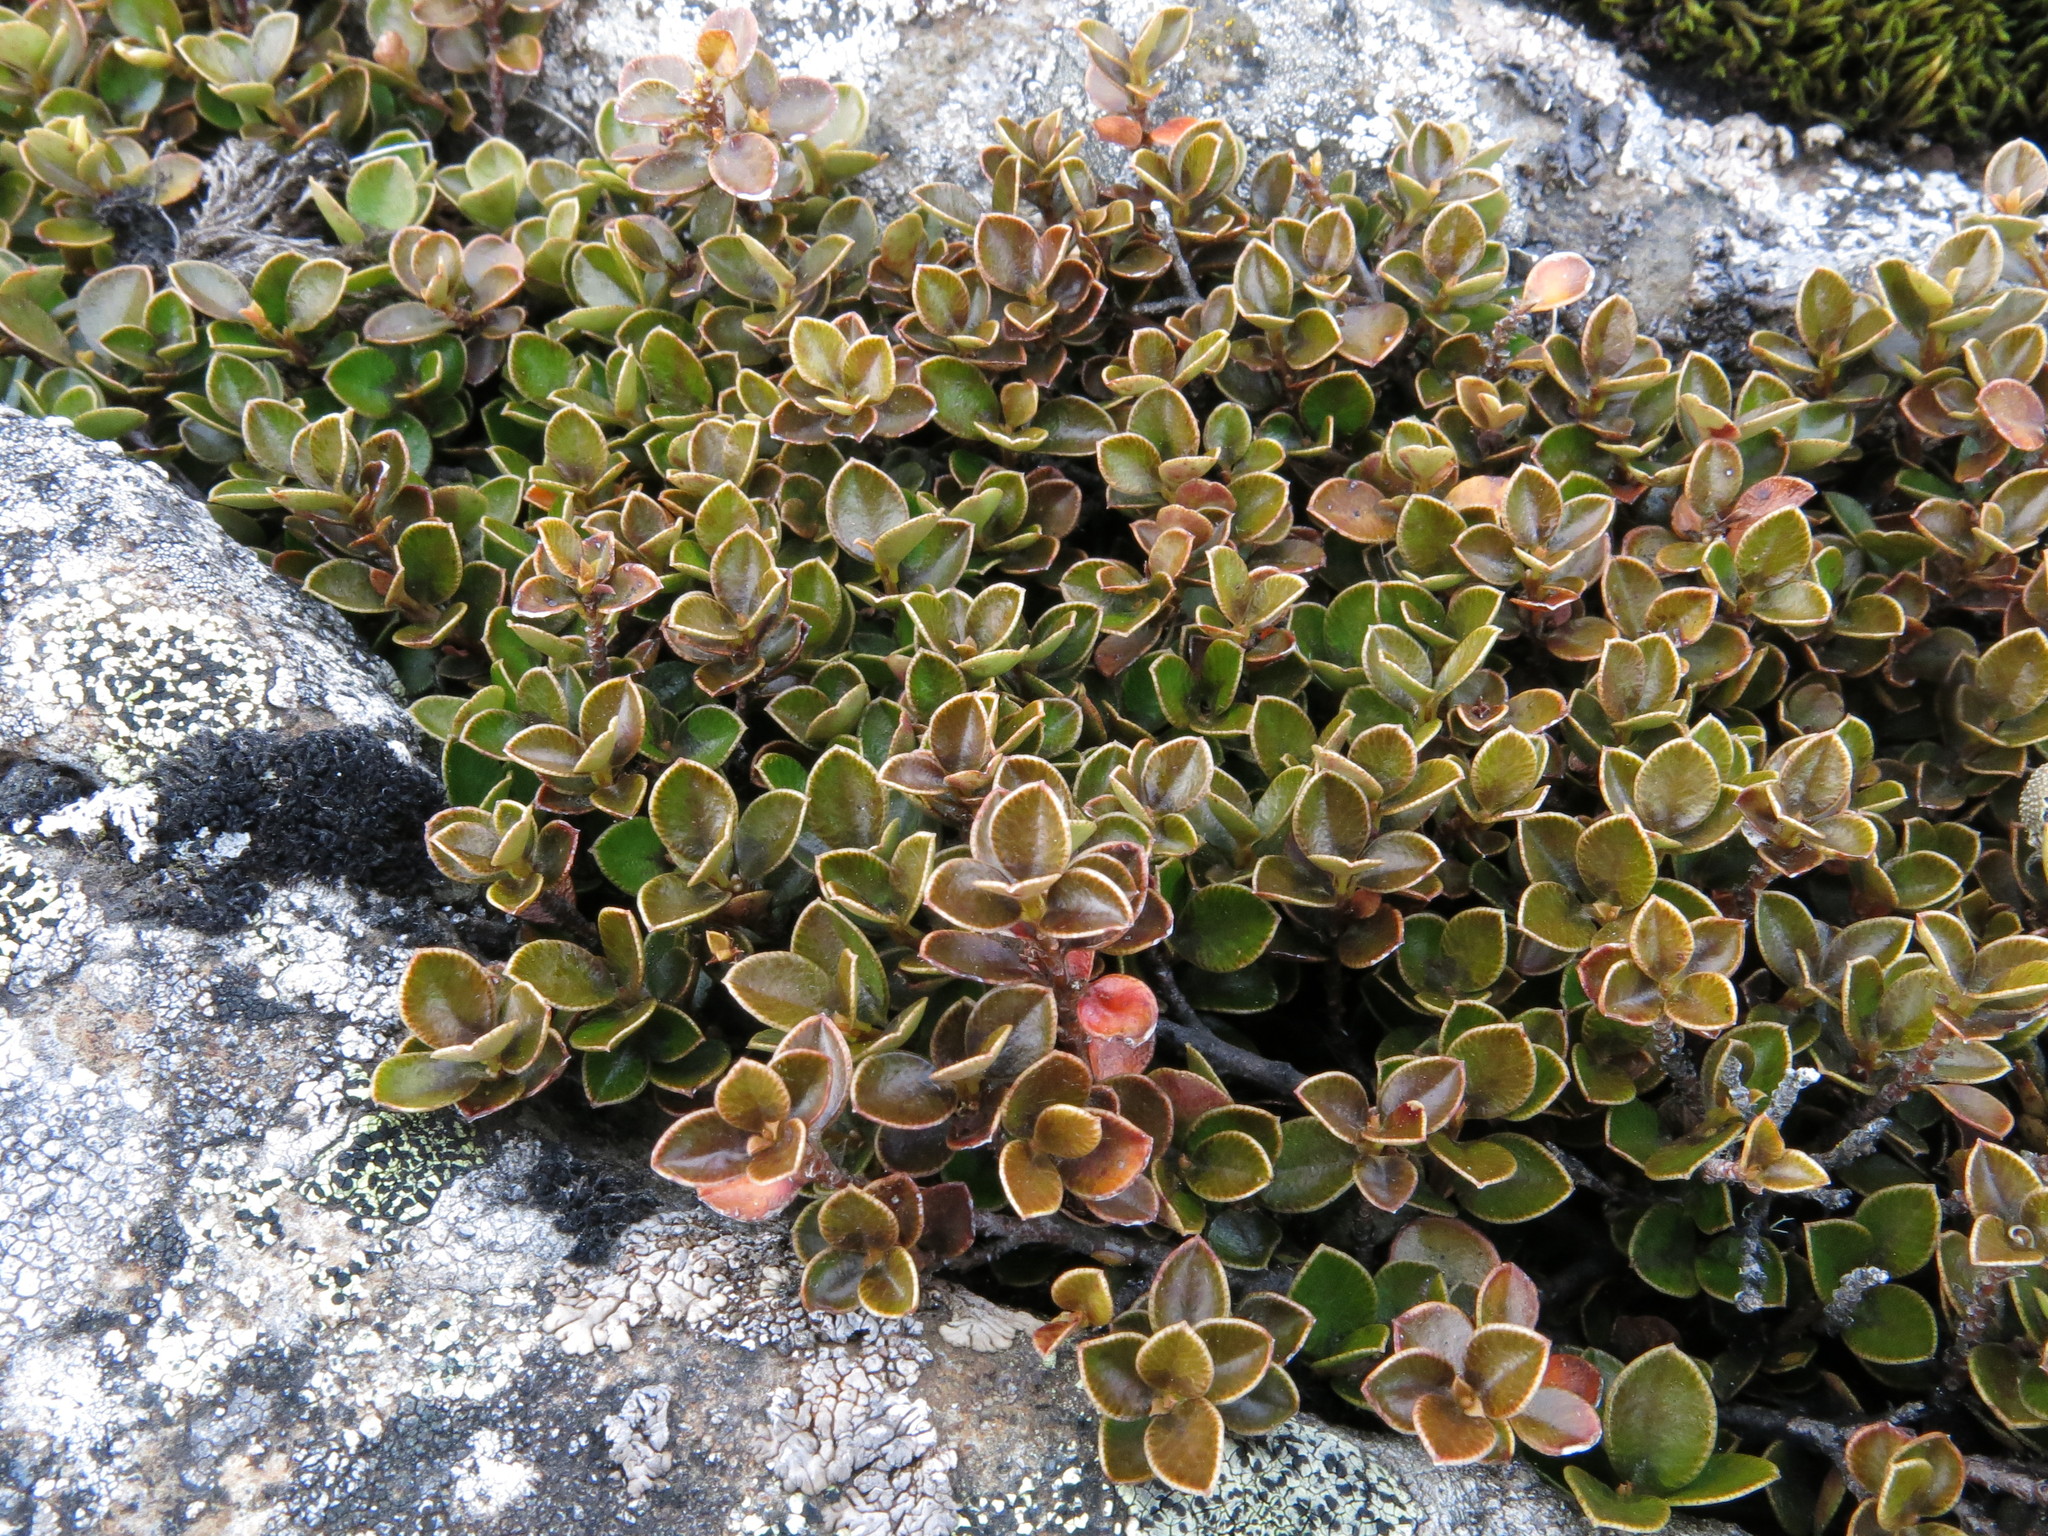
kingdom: Plantae
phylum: Tracheophyta
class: Magnoliopsida
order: Ericales
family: Primulaceae
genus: Myrsine
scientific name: Myrsine nummularia
